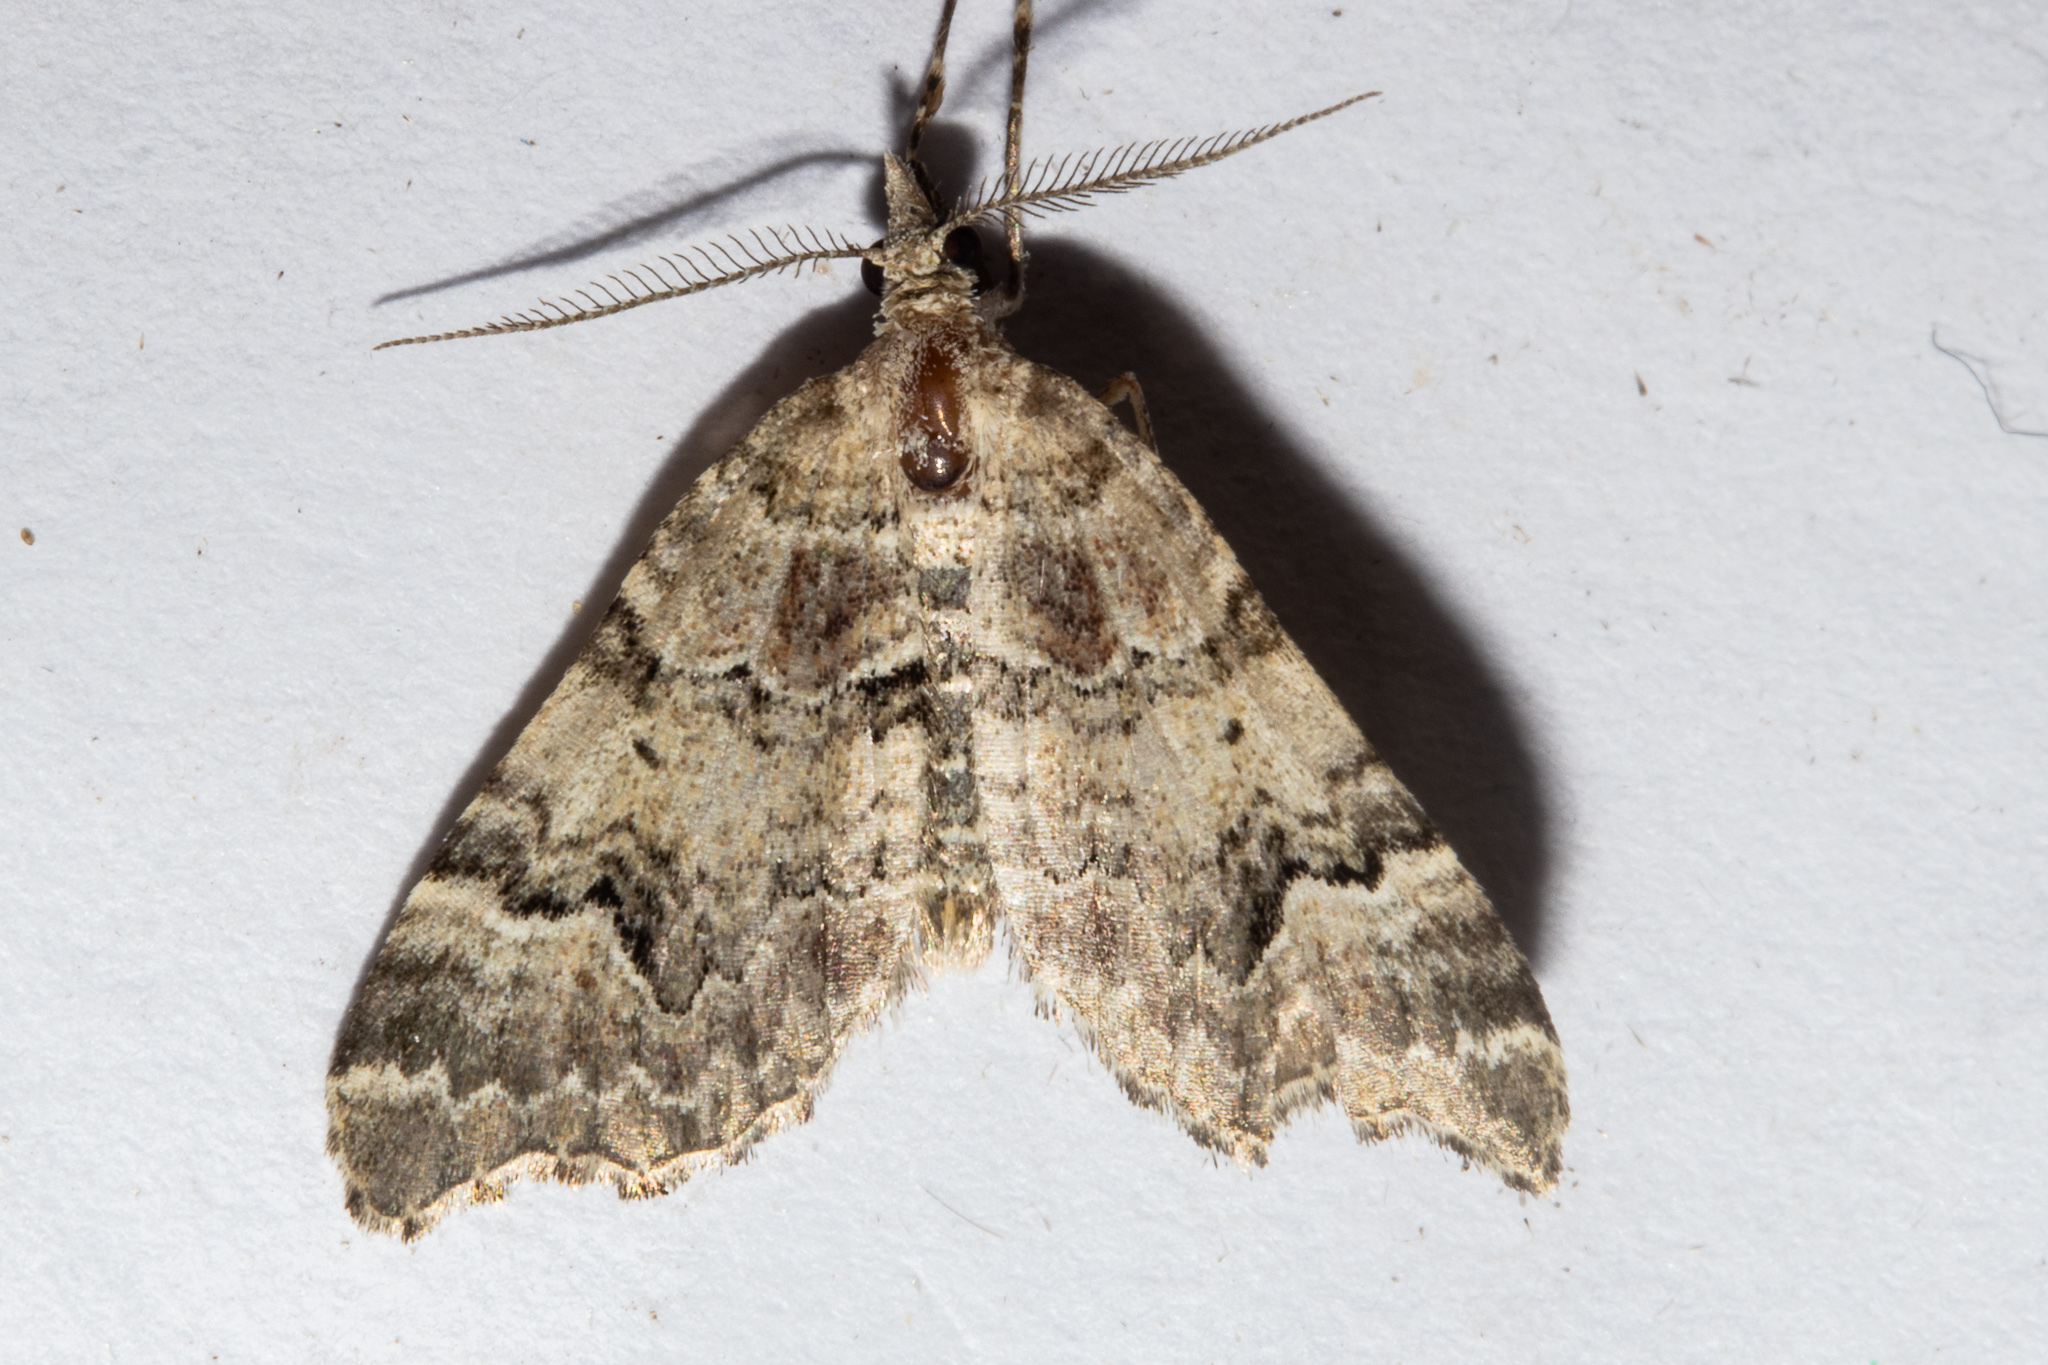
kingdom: Animalia
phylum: Arthropoda
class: Insecta
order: Lepidoptera
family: Geometridae
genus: Helastia
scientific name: Helastia cryptica
